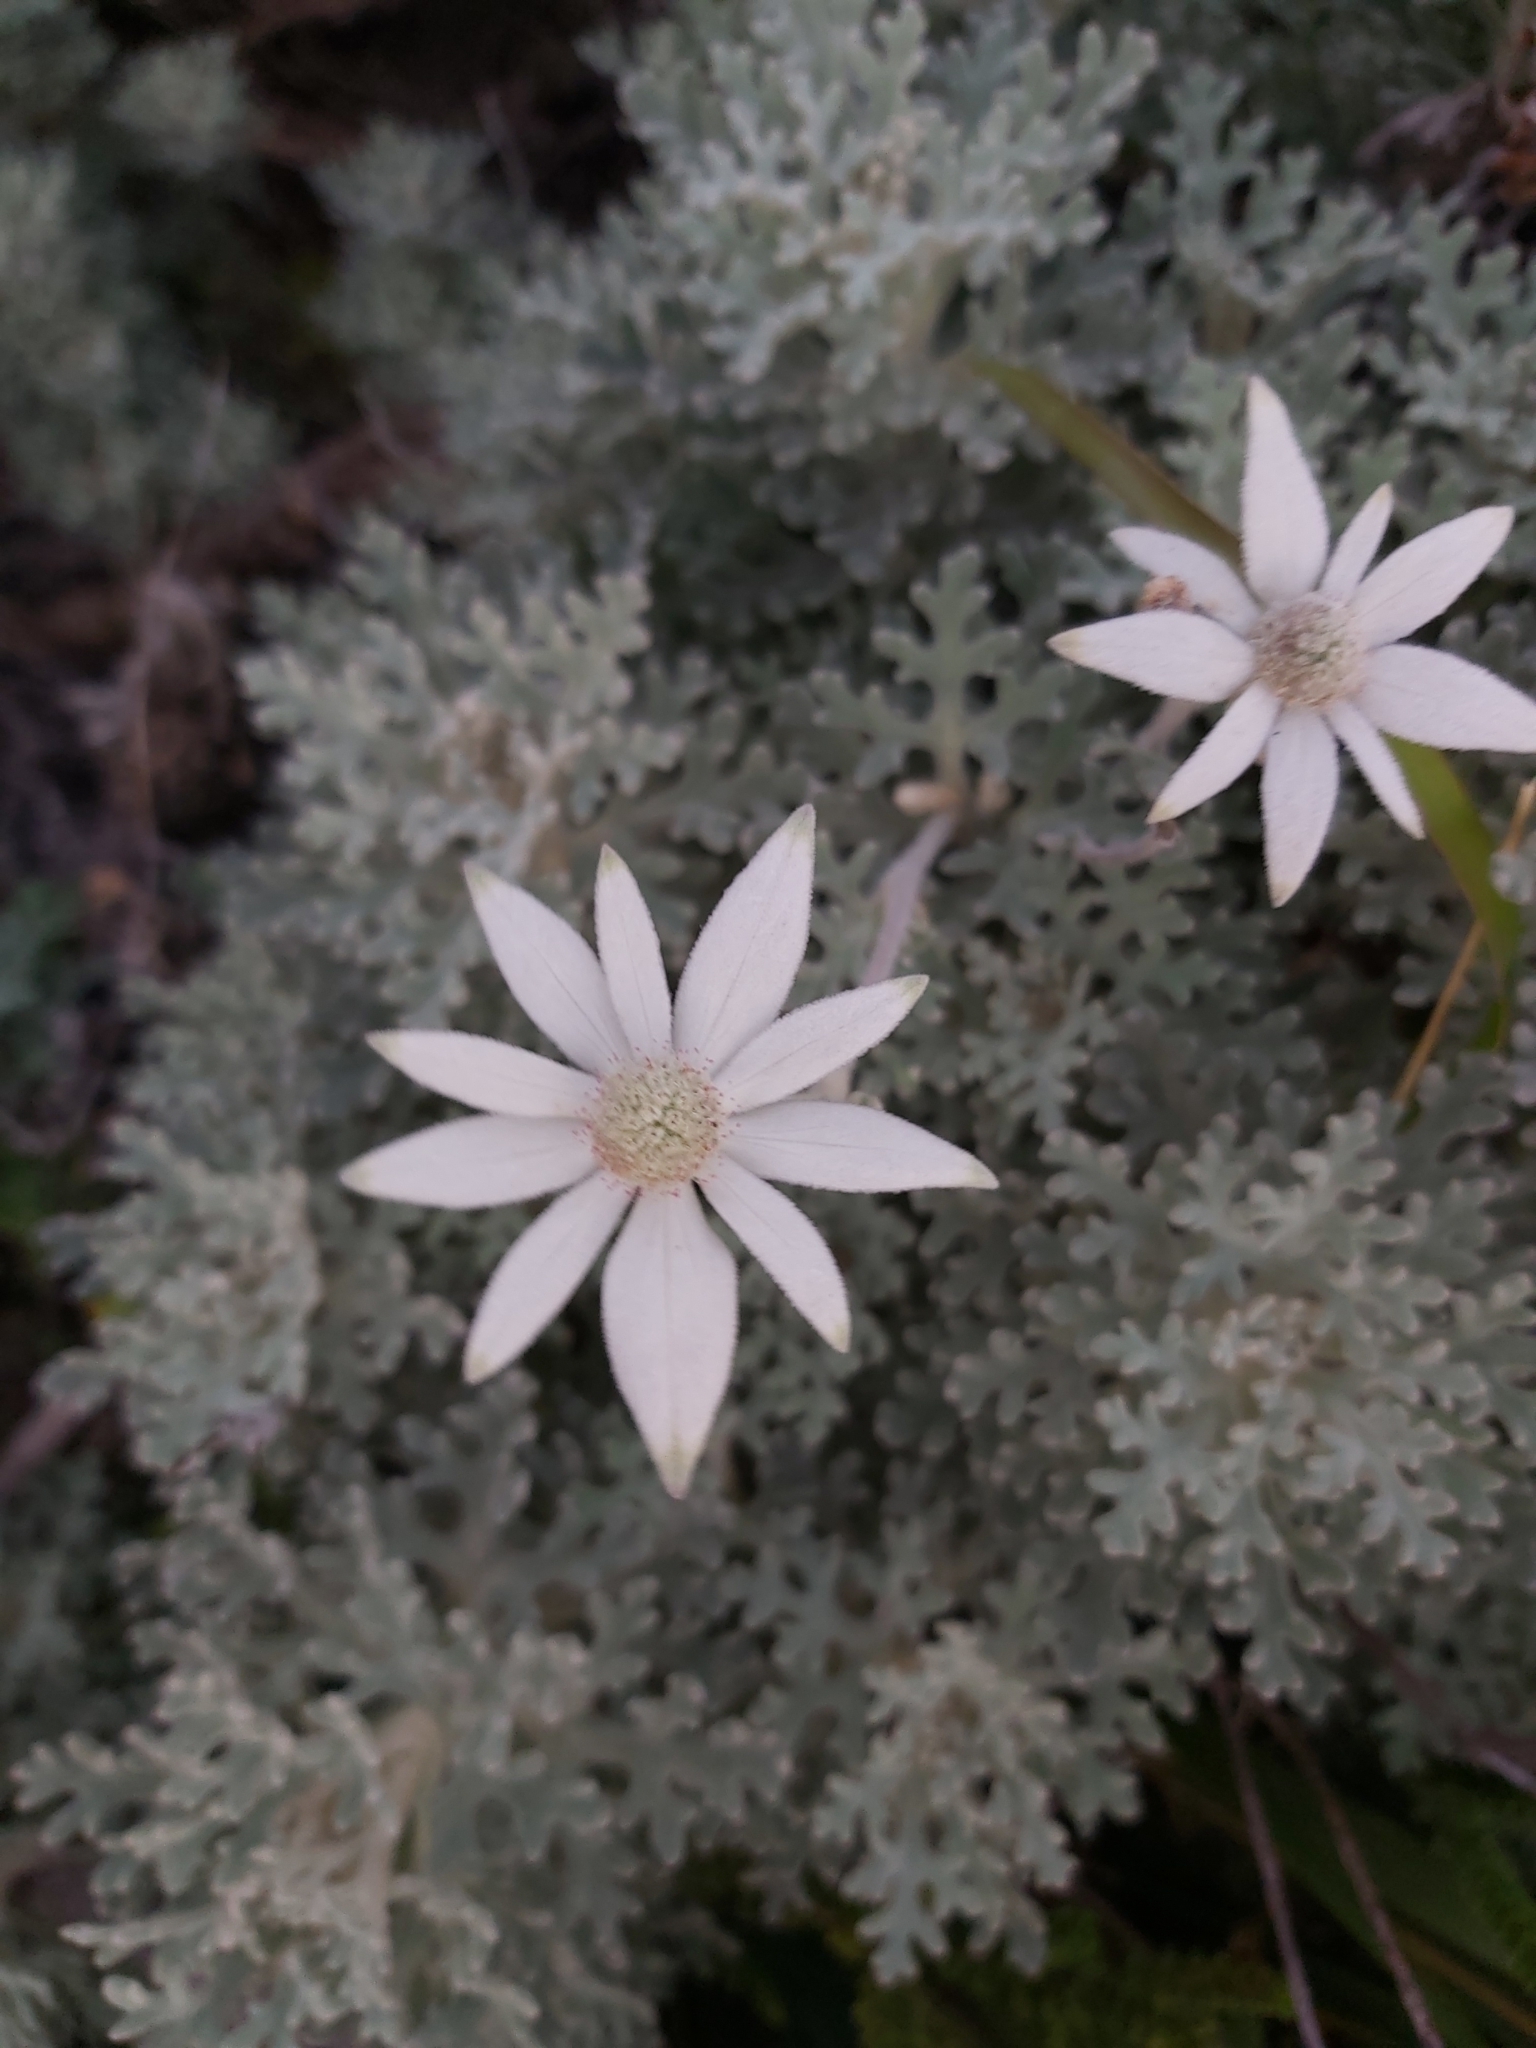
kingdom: Plantae
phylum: Tracheophyta
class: Magnoliopsida
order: Apiales
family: Apiaceae
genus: Actinotus
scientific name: Actinotus helianthi
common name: Flannel-flower
